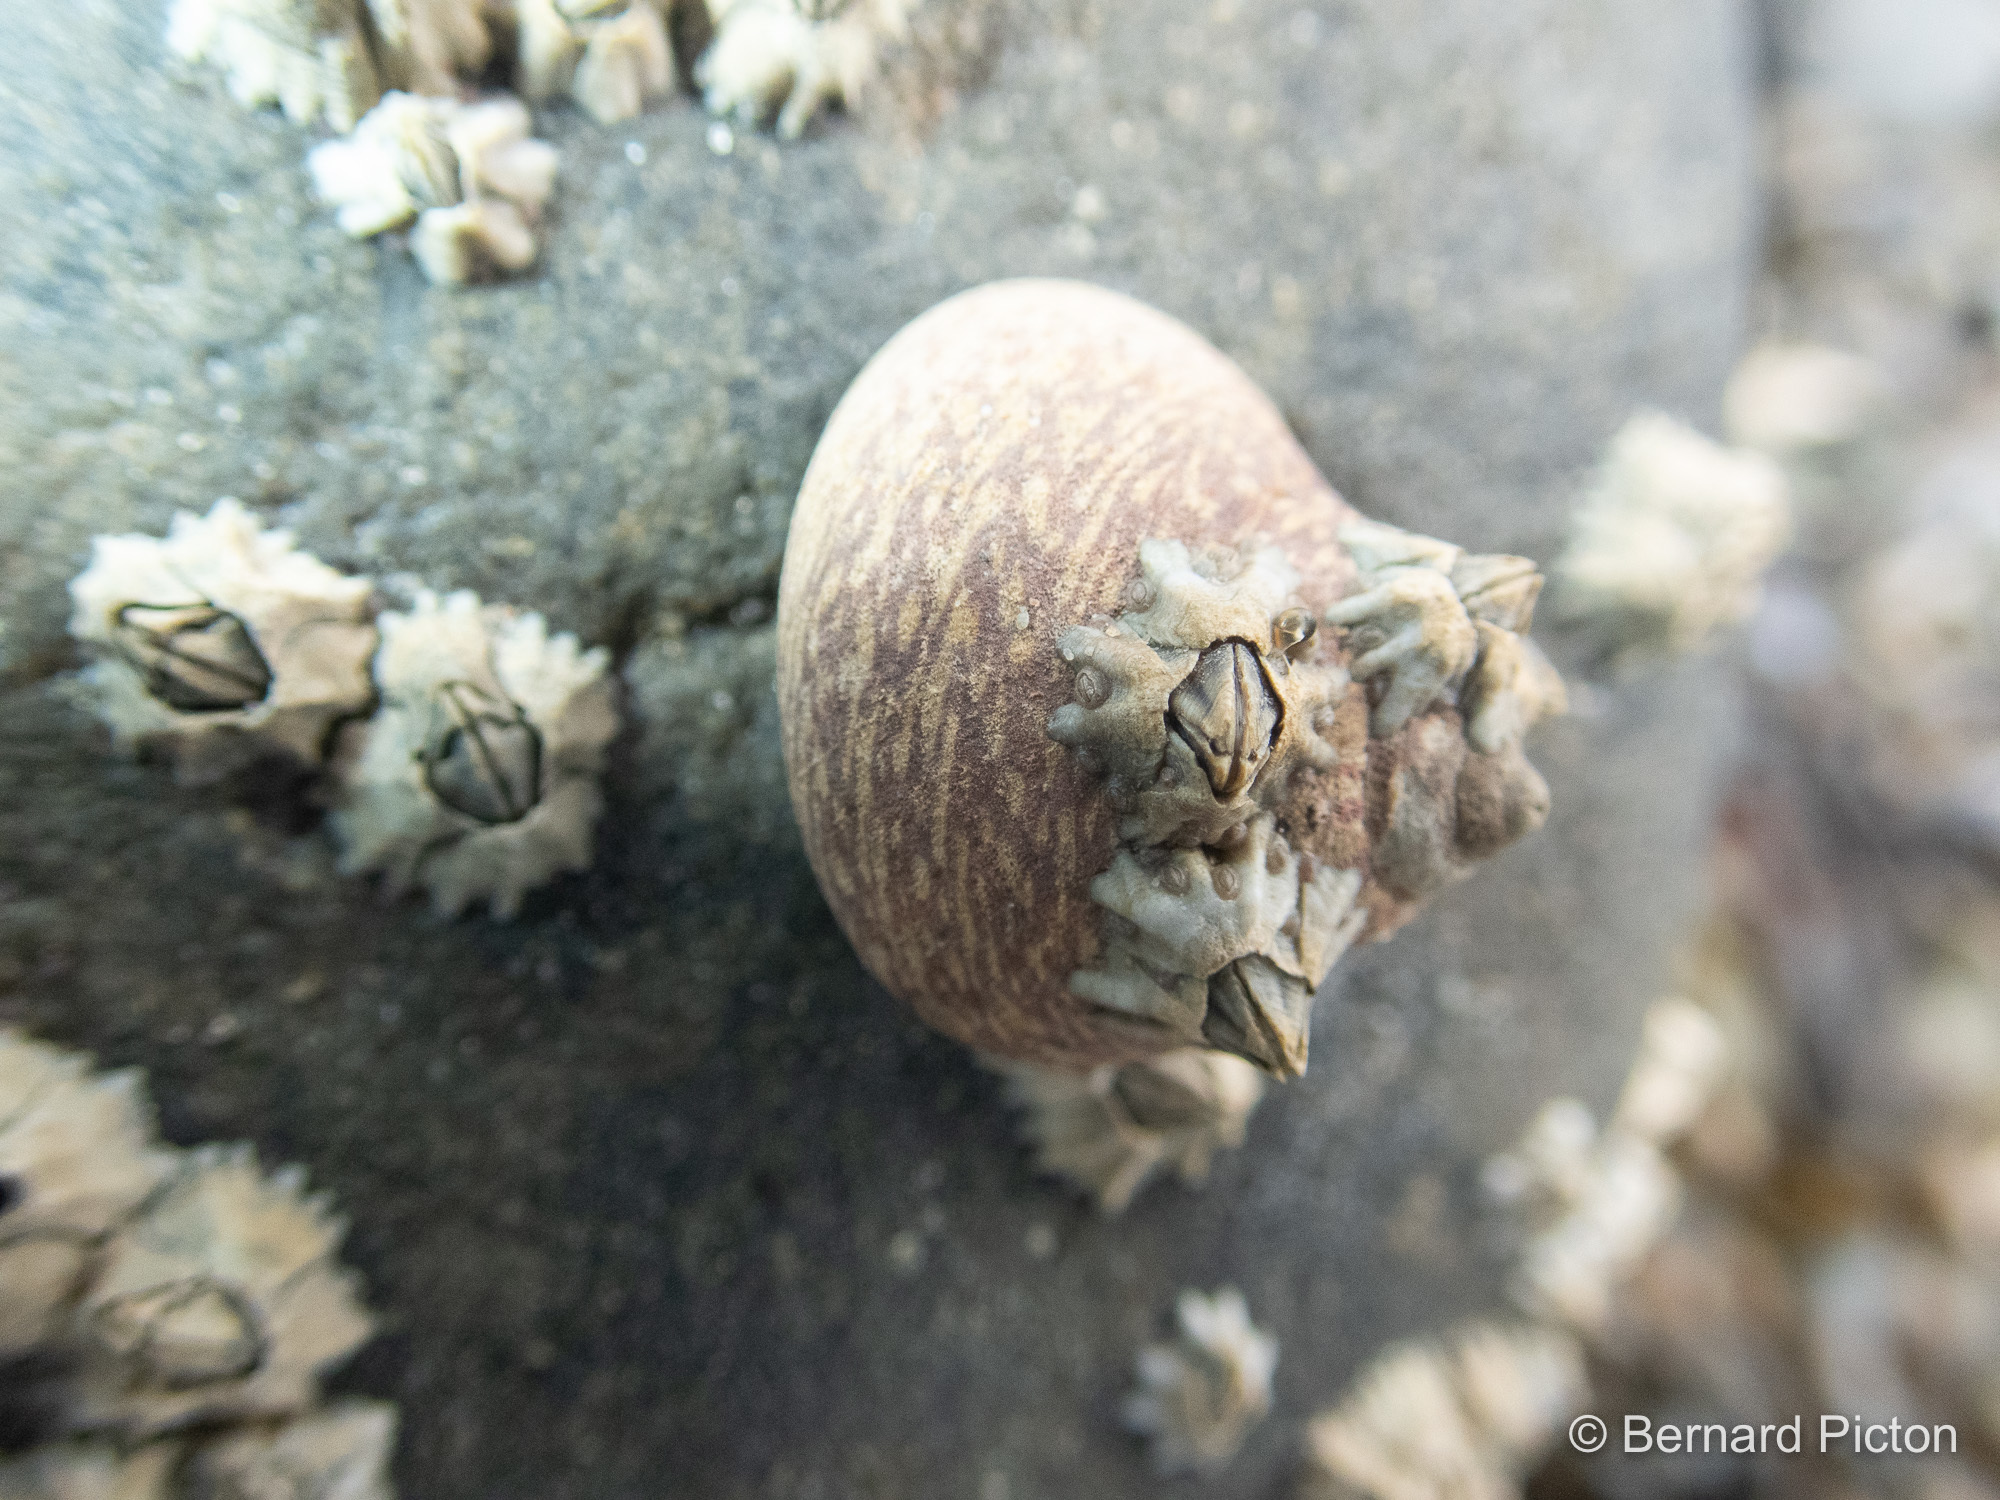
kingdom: Animalia
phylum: Mollusca
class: Gastropoda
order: Trochida
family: Trochidae
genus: Phorcus
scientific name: Phorcus lineatus
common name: Toothed top shell
